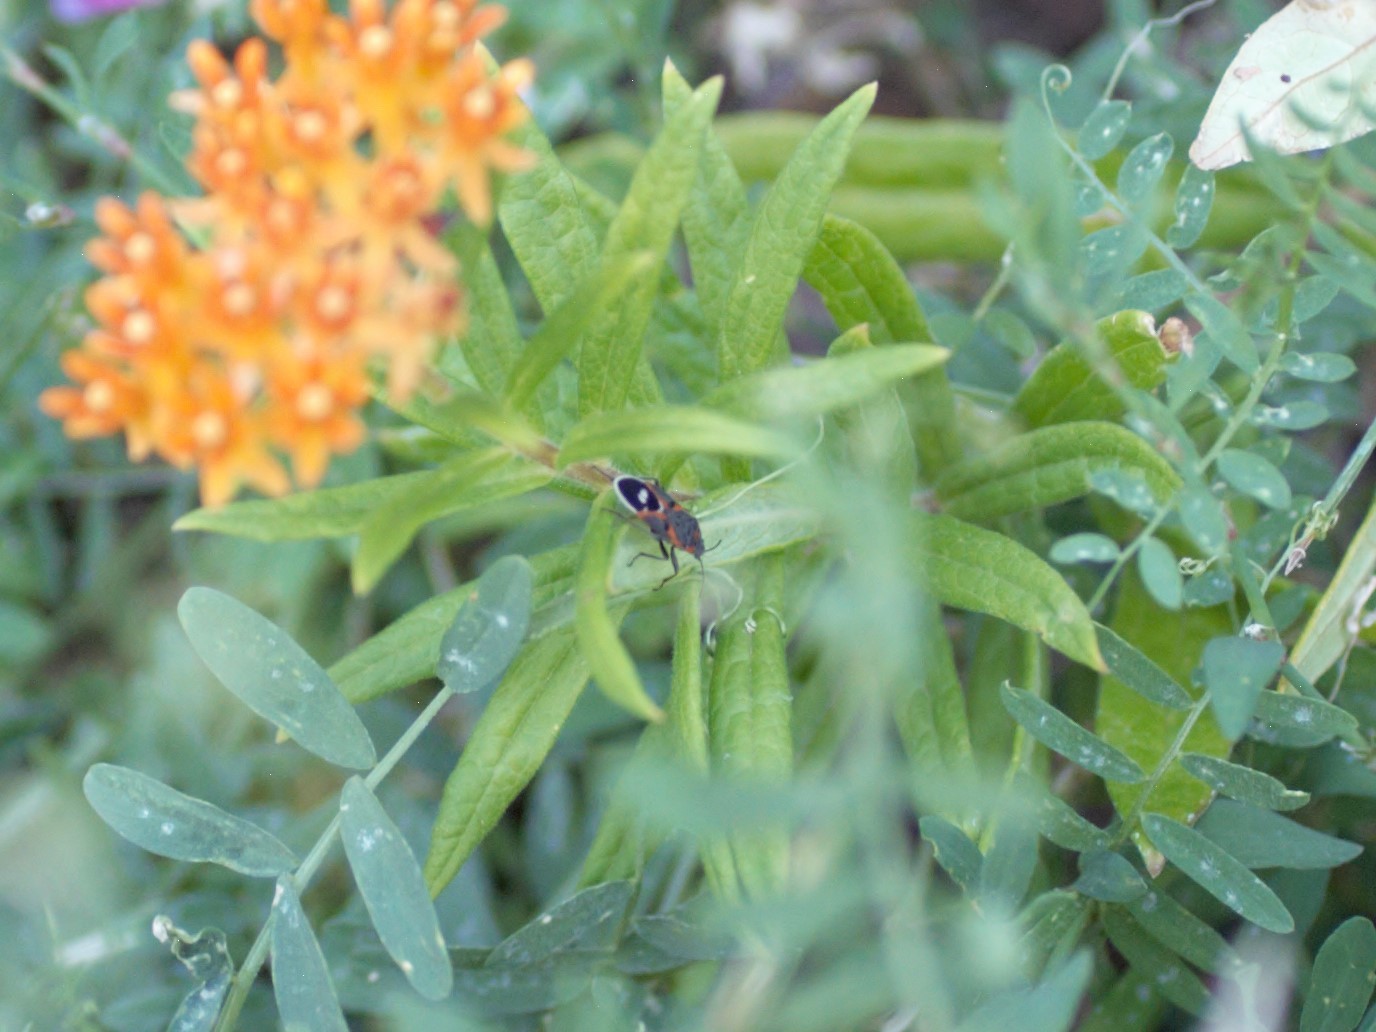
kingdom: Animalia
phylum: Arthropoda
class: Insecta
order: Hemiptera
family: Lygaeidae
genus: Lygaeus
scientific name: Lygaeus kalmii
